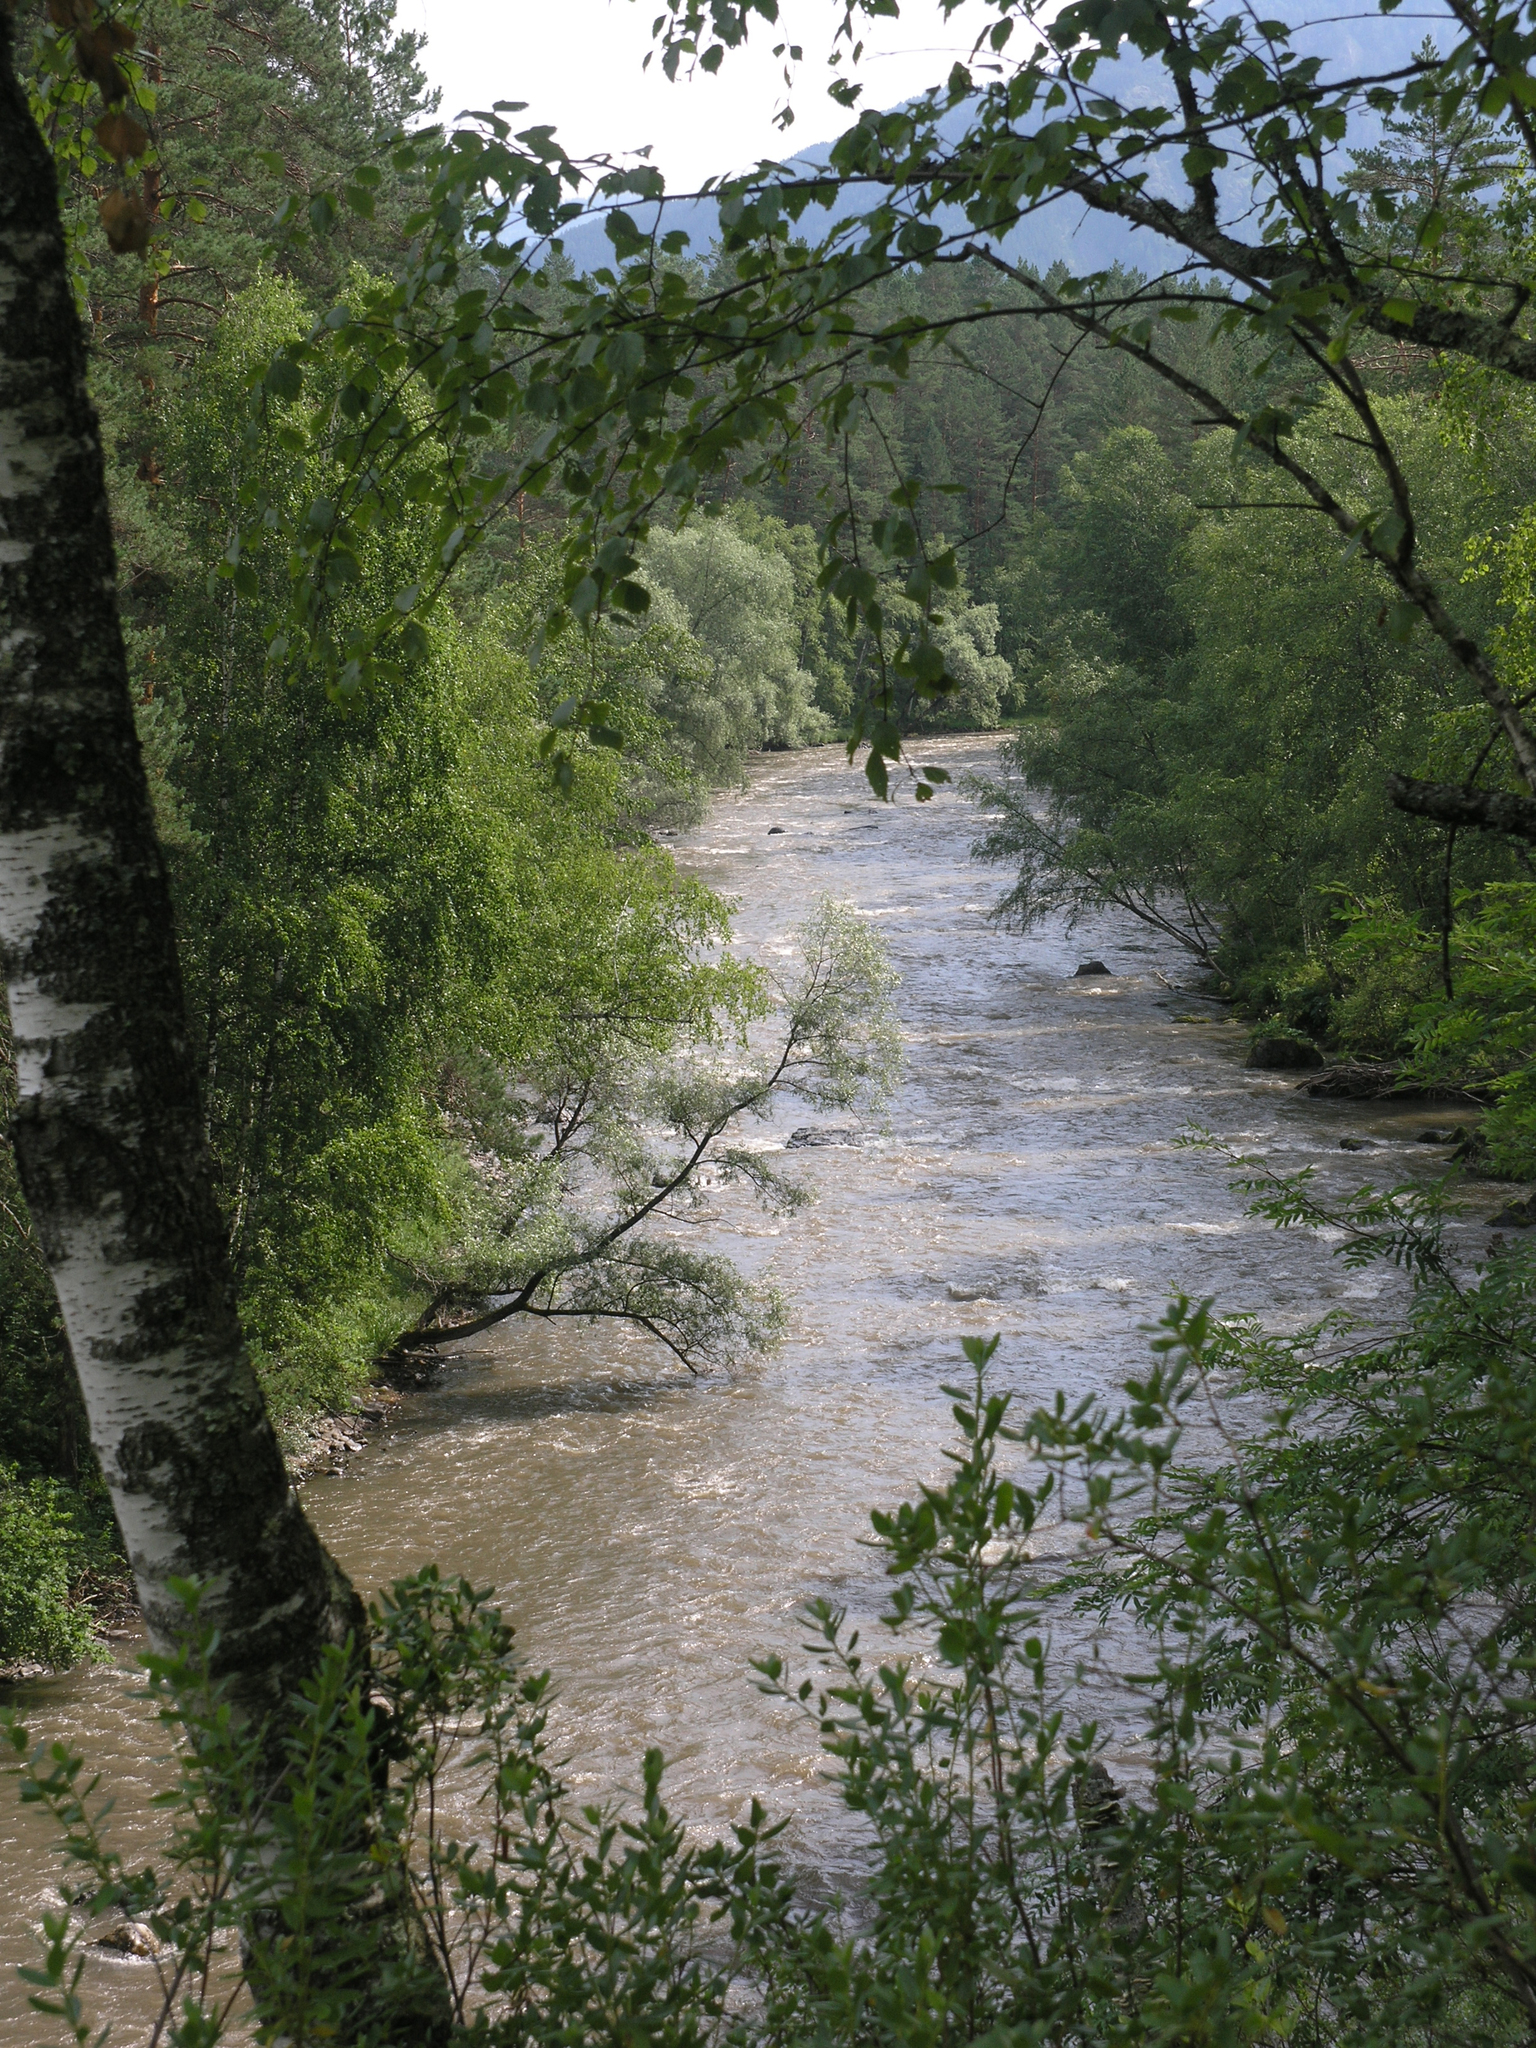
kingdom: Plantae
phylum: Tracheophyta
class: Magnoliopsida
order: Fagales
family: Betulaceae
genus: Betula
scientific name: Betula pendula
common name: Silver birch
